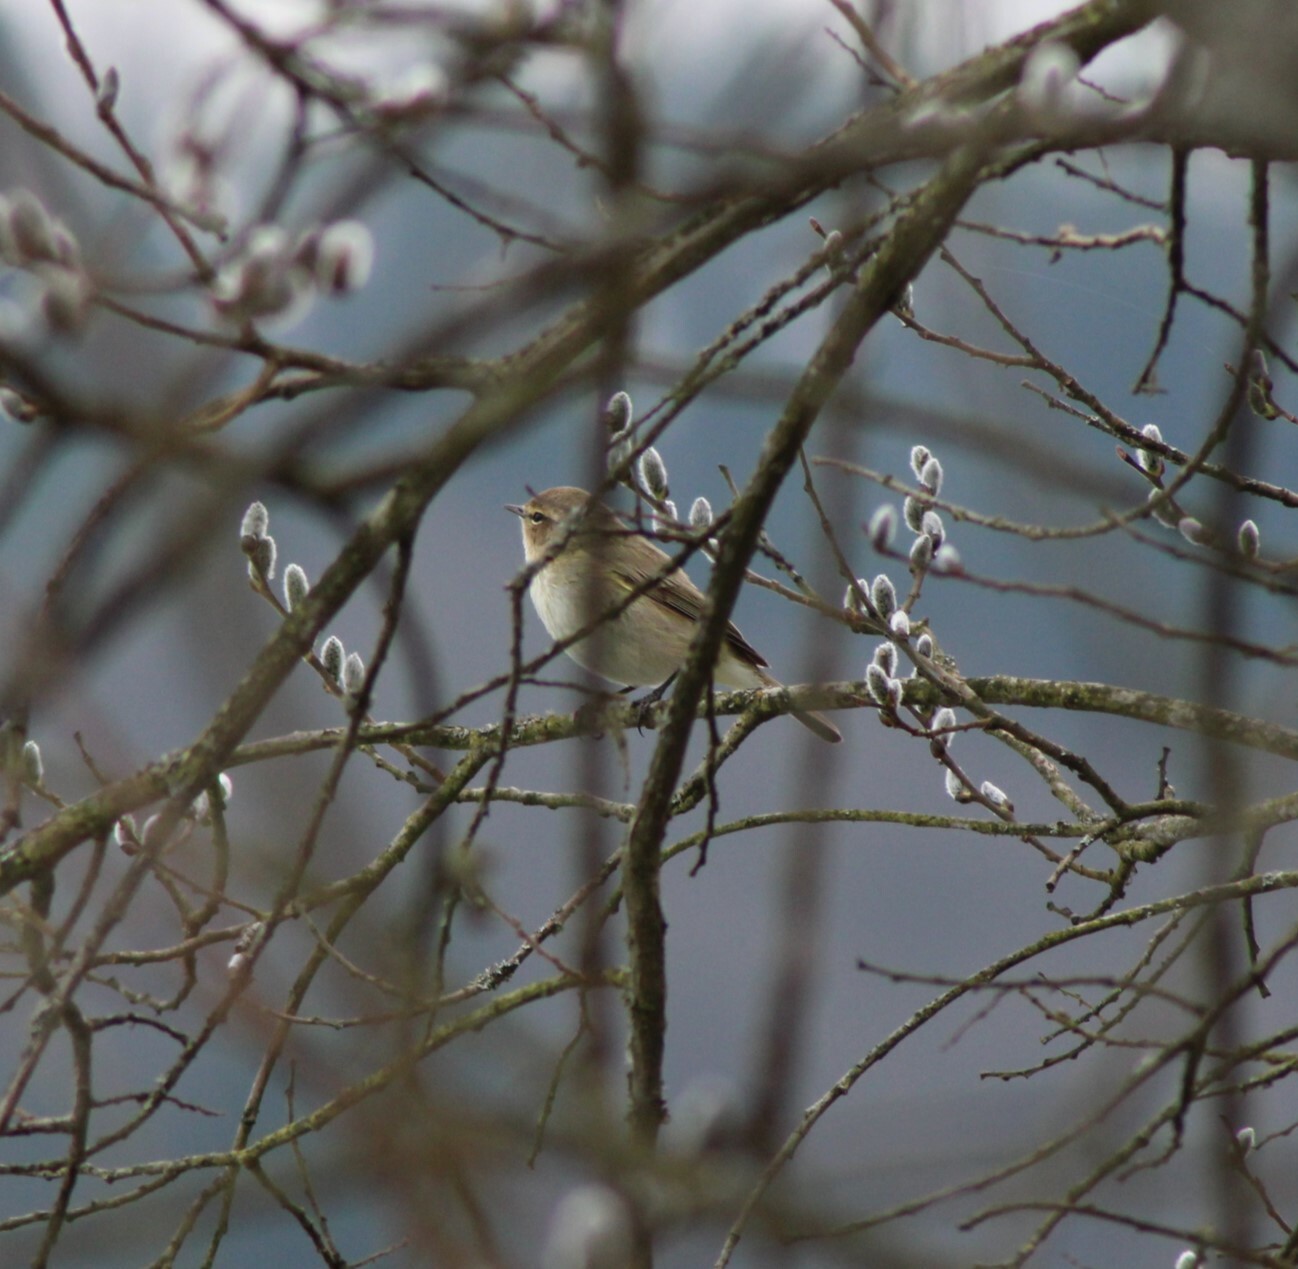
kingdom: Animalia
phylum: Chordata
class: Aves
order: Passeriformes
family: Phylloscopidae
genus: Phylloscopus
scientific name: Phylloscopus collybita
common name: Common chiffchaff
